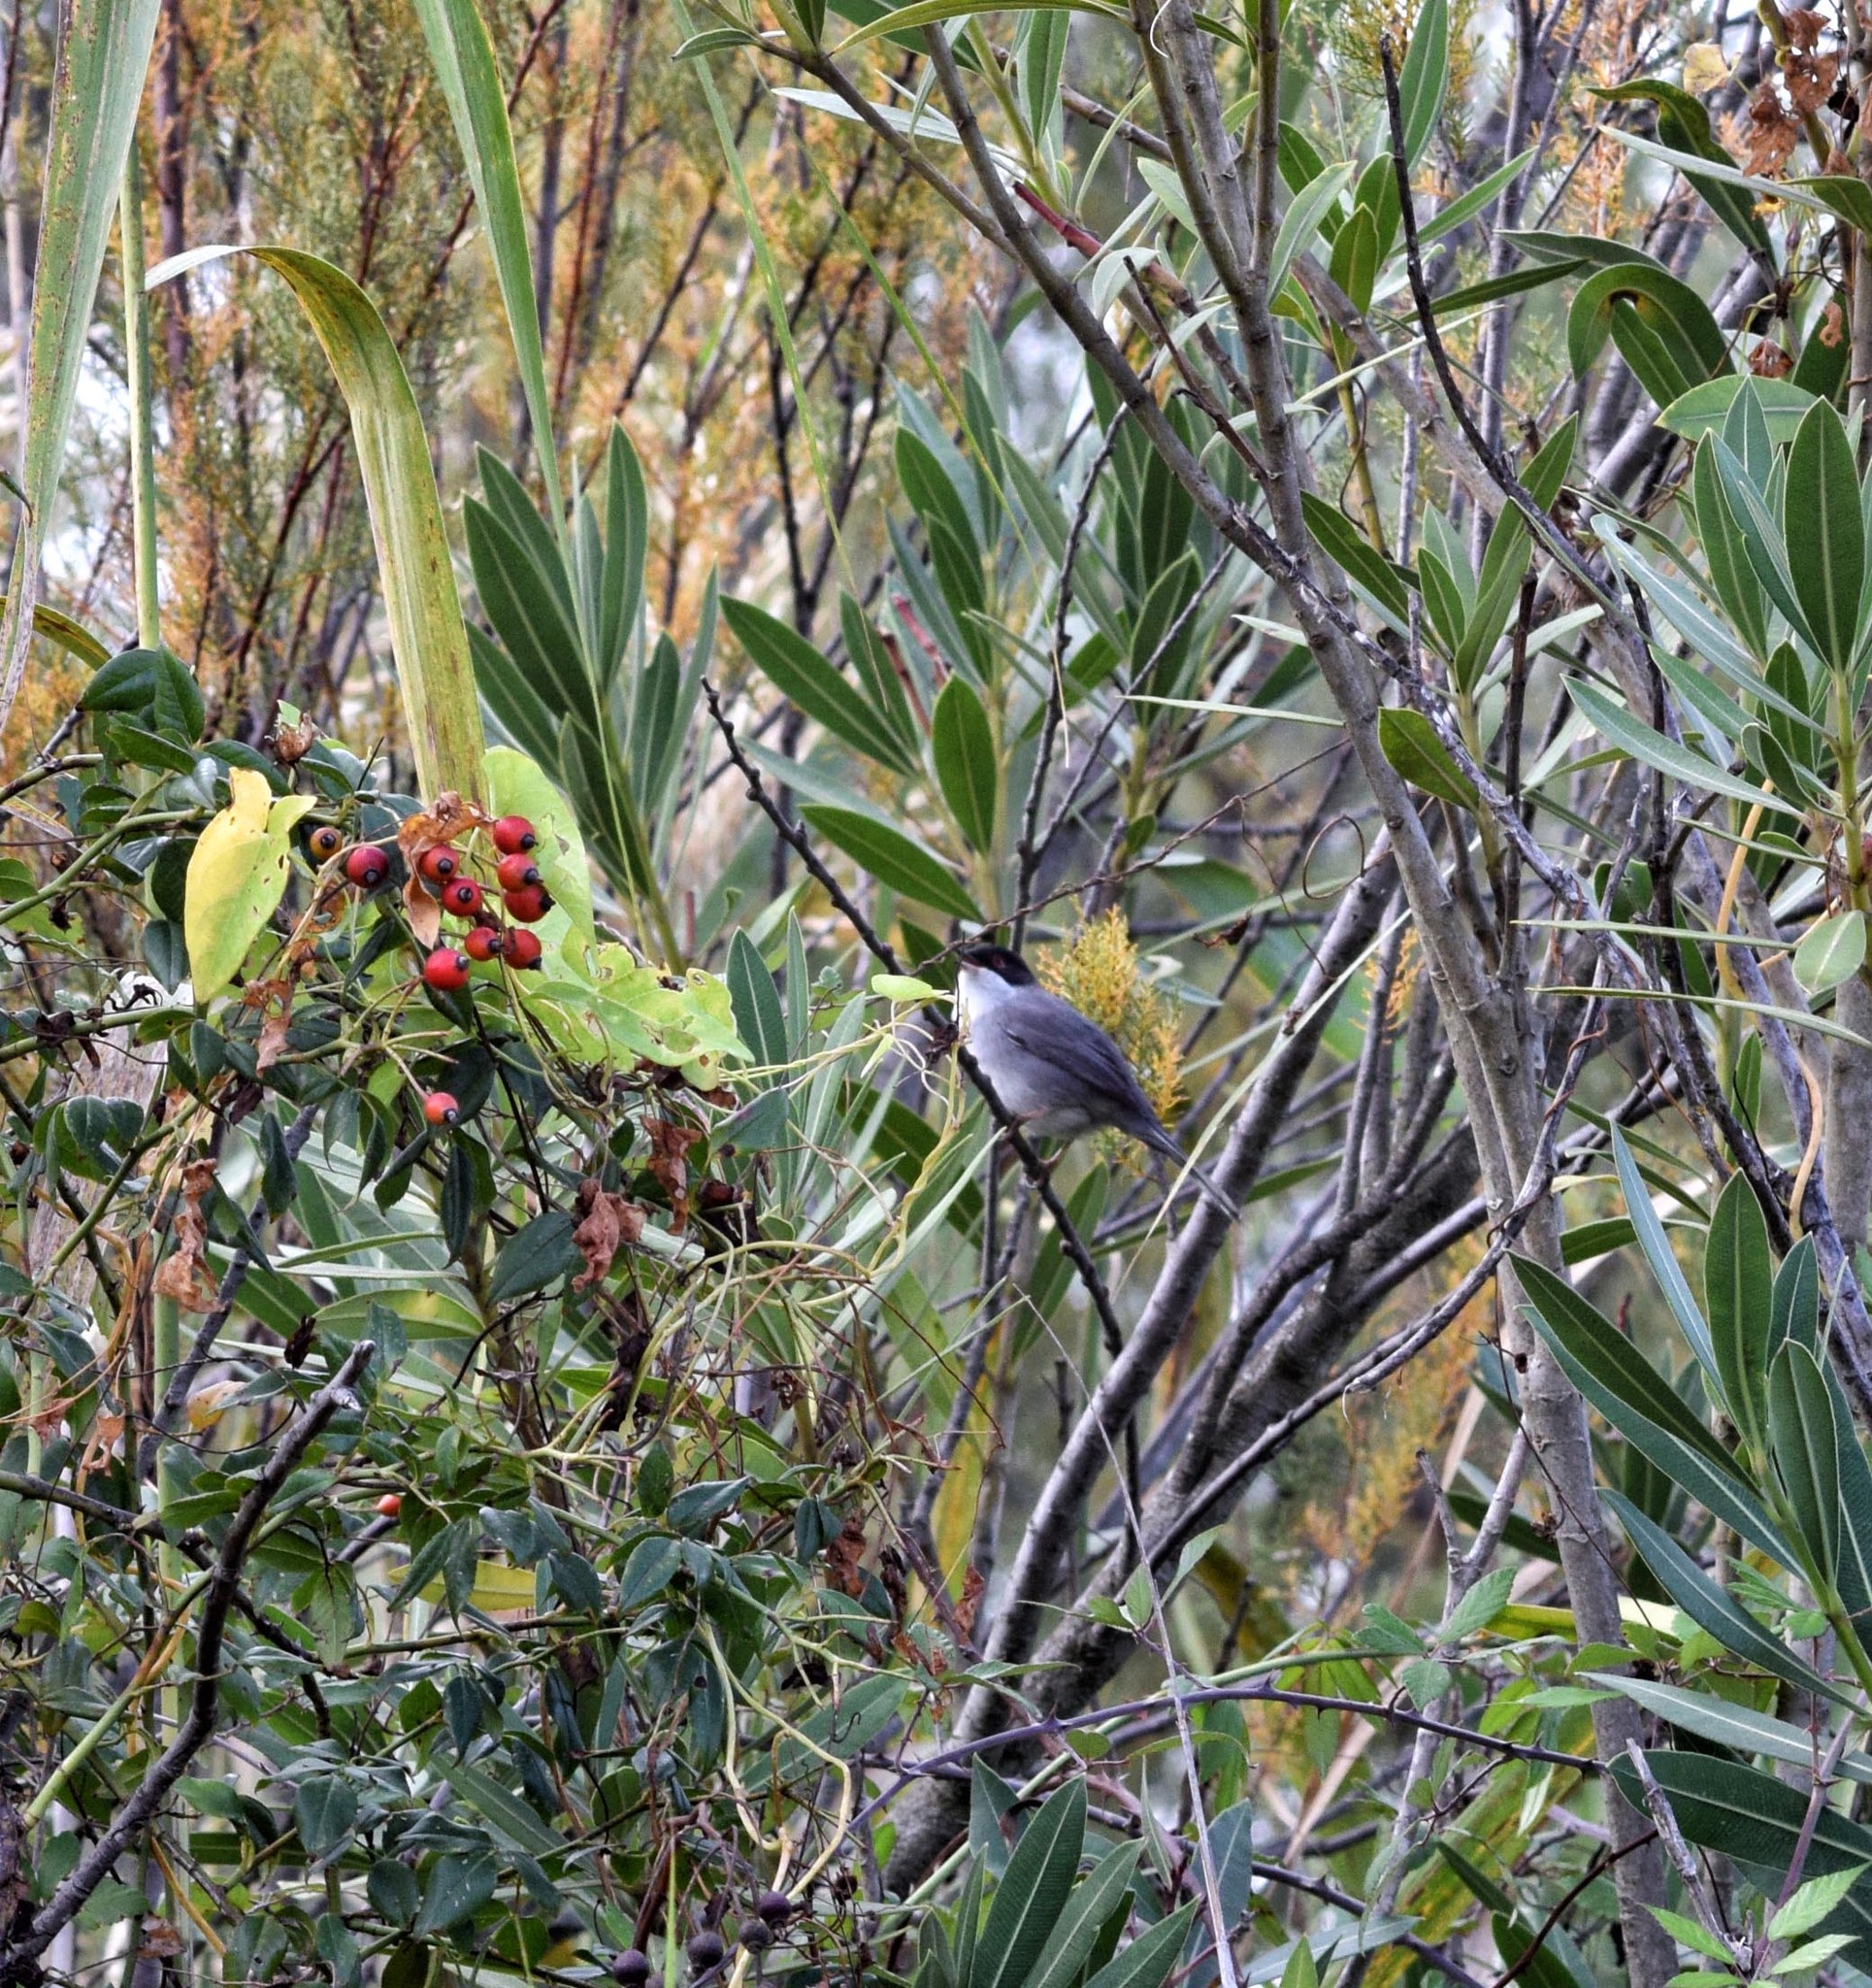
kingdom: Animalia
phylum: Chordata
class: Aves
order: Passeriformes
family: Sylviidae
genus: Curruca
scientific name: Curruca melanocephala
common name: Sardinian warbler
